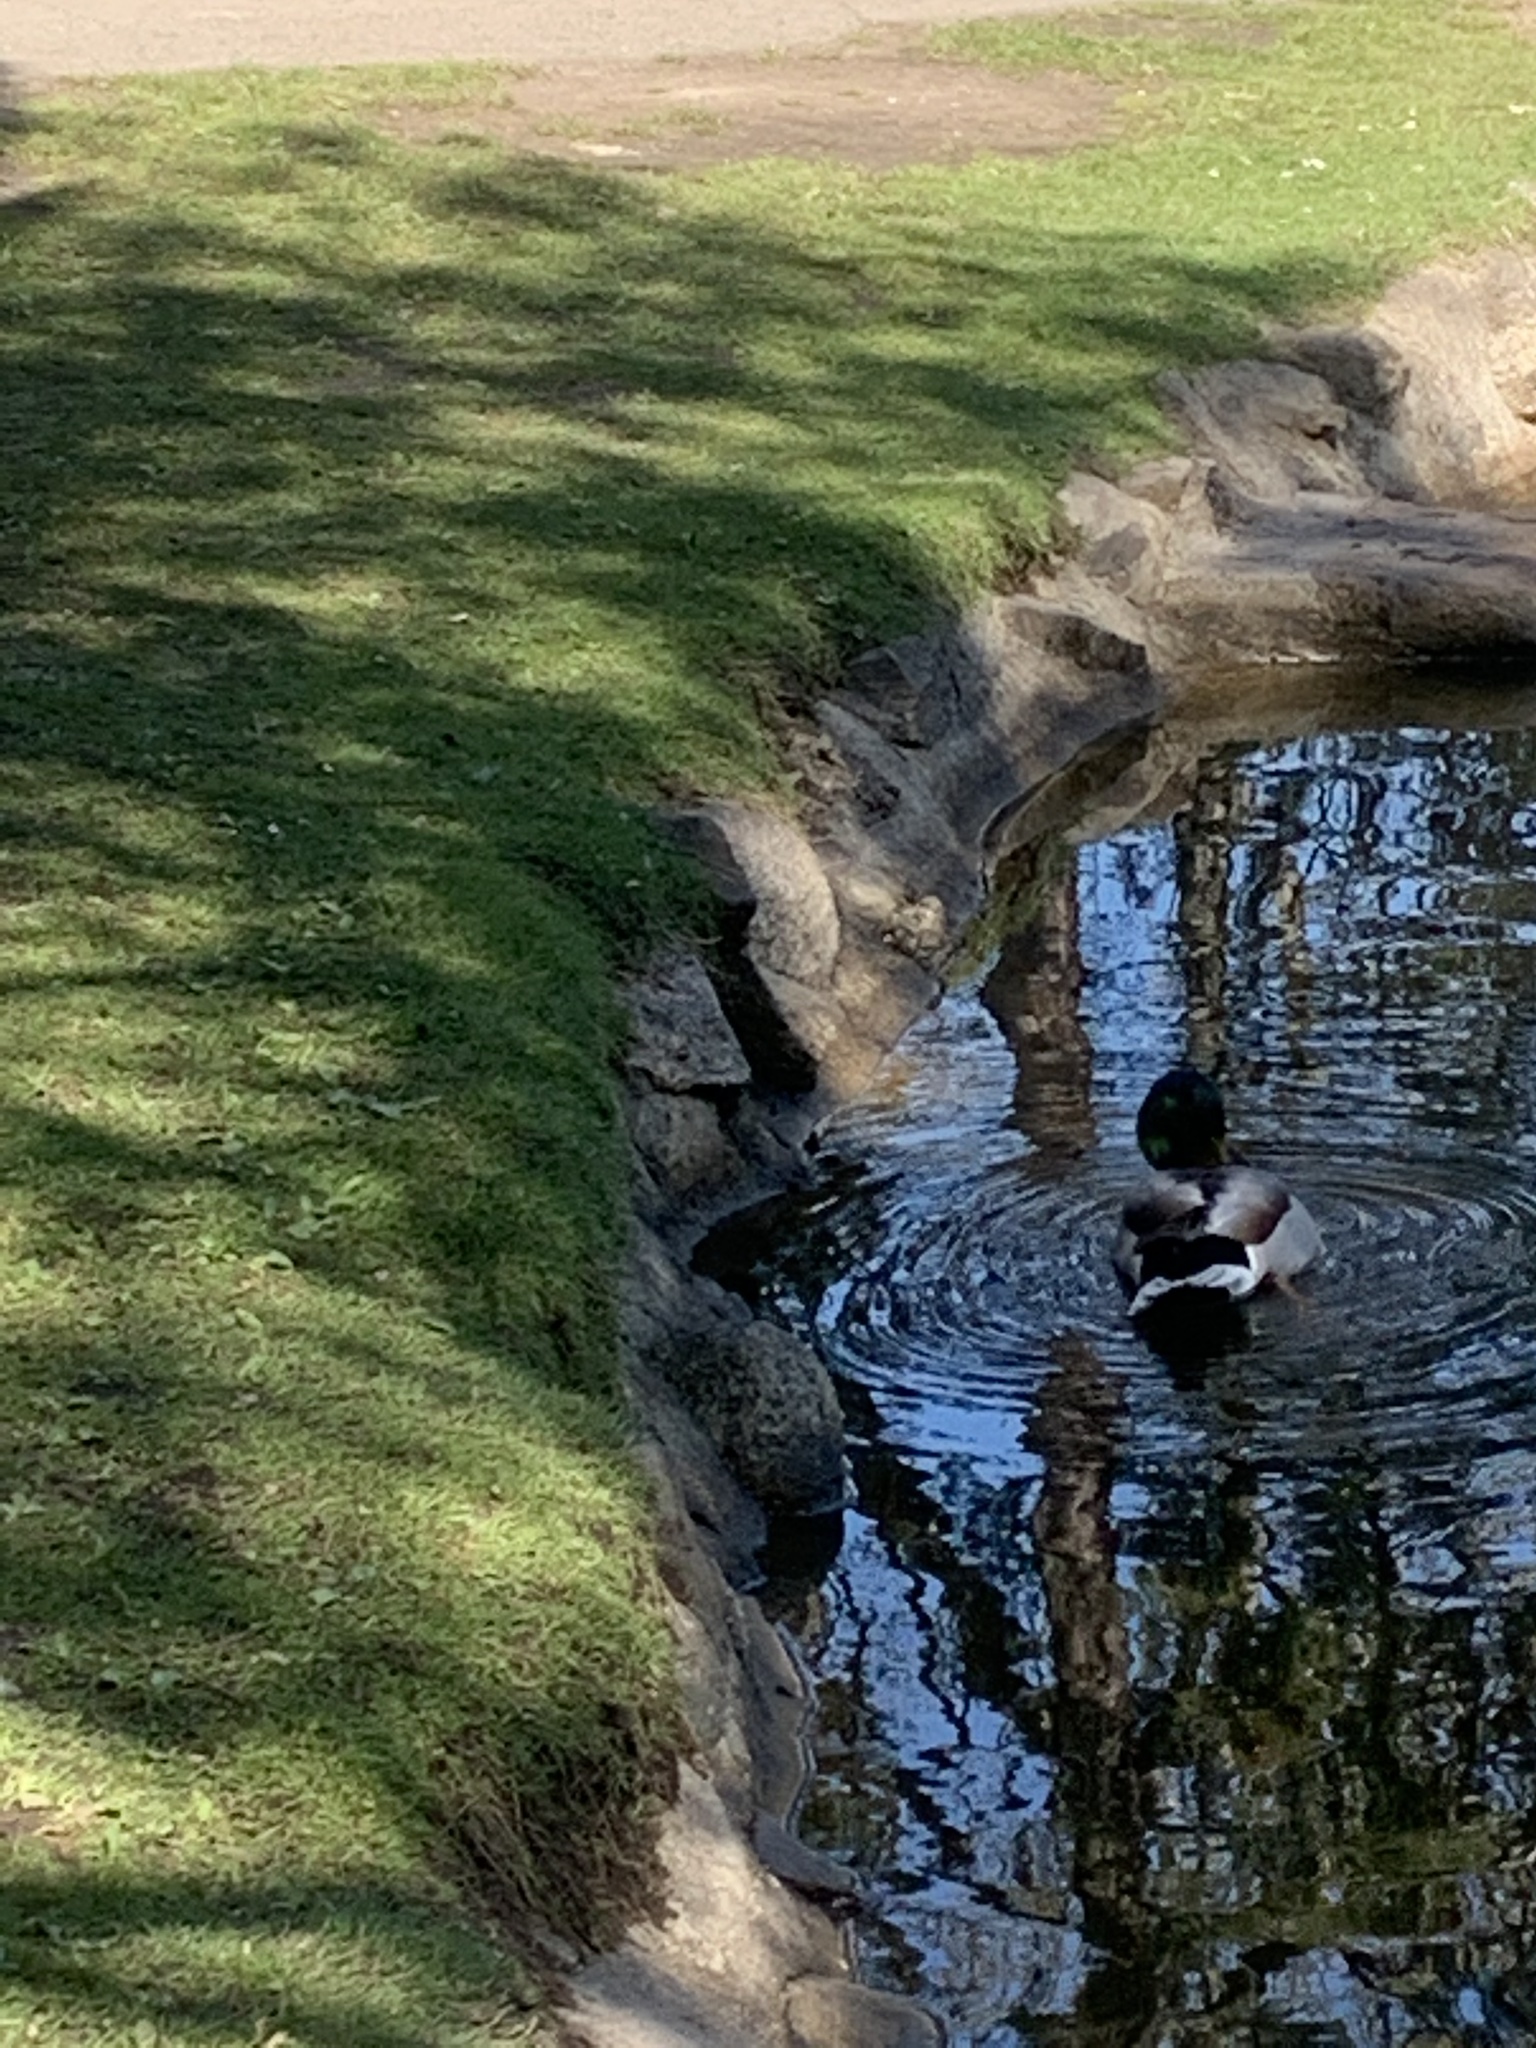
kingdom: Animalia
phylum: Chordata
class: Aves
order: Anseriformes
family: Anatidae
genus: Anas
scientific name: Anas platyrhynchos
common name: Mallard
